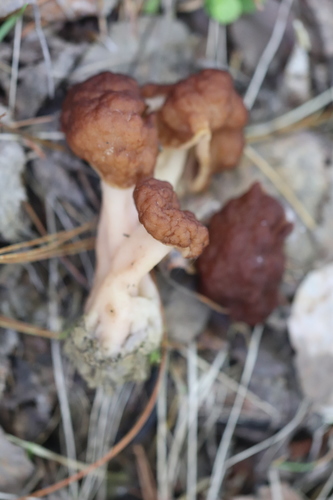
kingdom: Fungi
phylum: Ascomycota
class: Pezizomycetes
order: Pezizales
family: Discinaceae
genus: Gyromitra
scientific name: Gyromitra esculenta
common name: False morel
